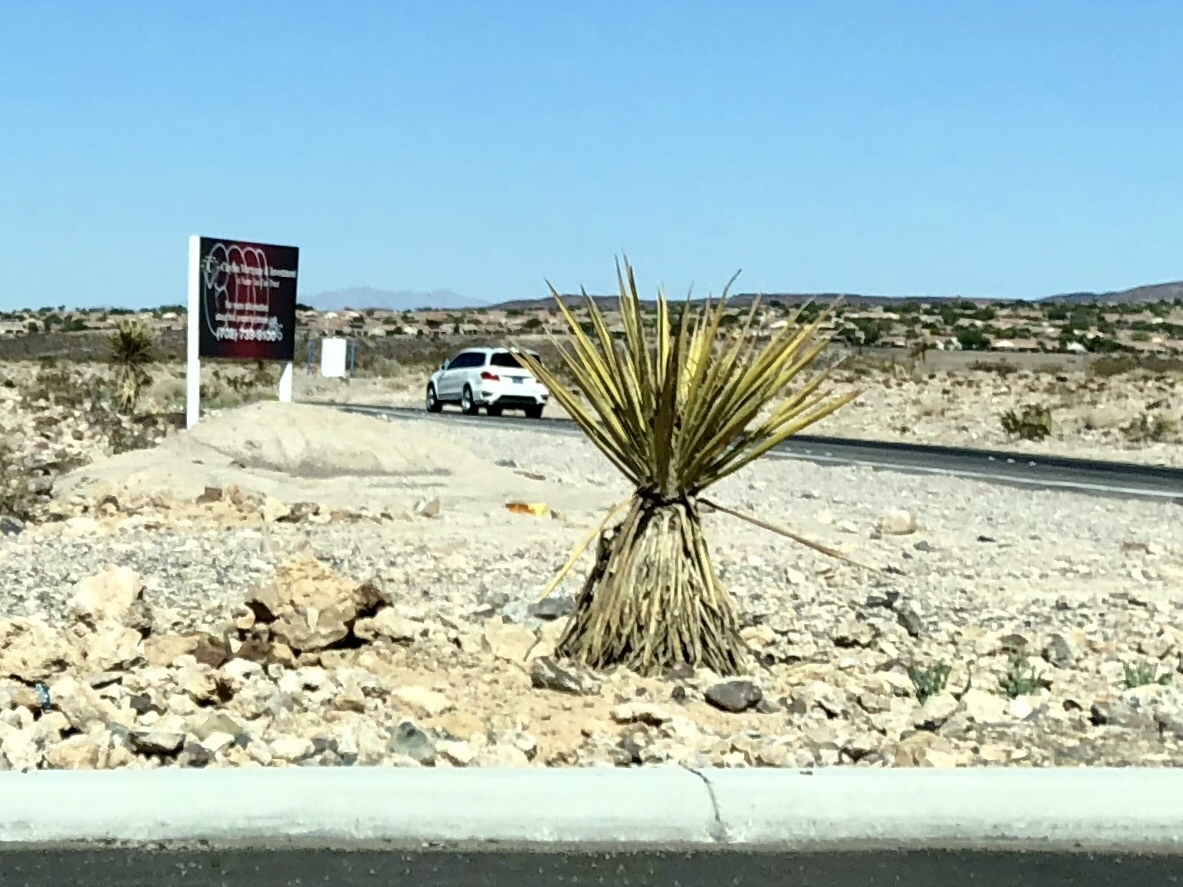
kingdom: Plantae
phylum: Tracheophyta
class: Liliopsida
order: Asparagales
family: Asparagaceae
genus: Yucca
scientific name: Yucca schidigera
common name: Mojave yucca
